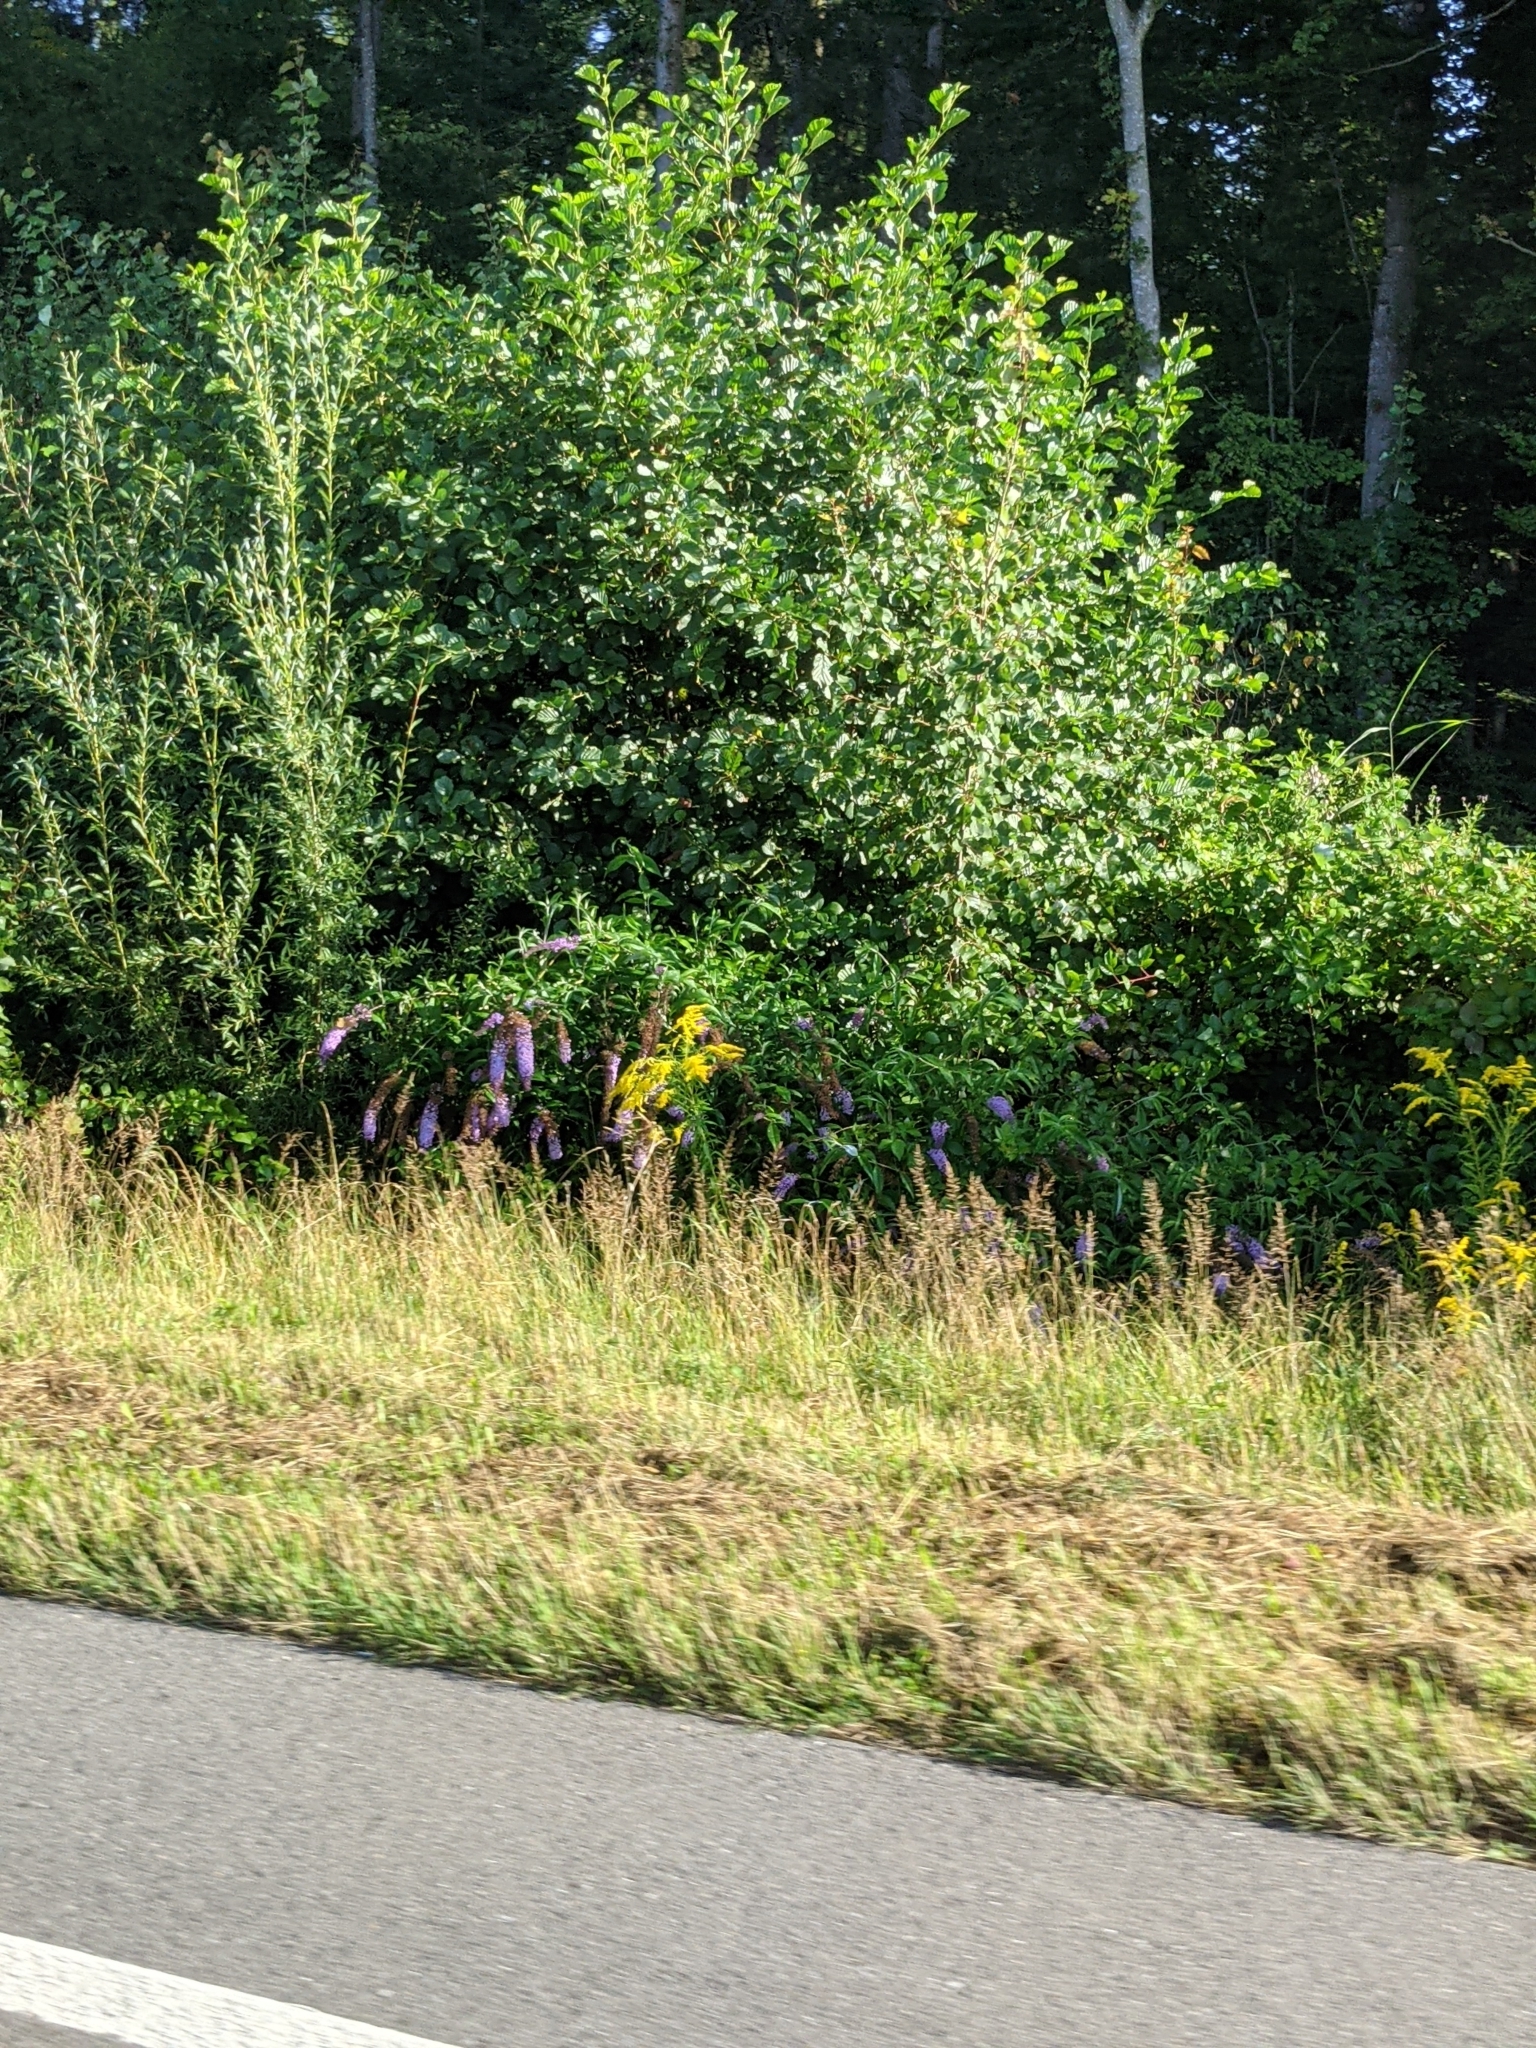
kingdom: Plantae
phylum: Tracheophyta
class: Magnoliopsida
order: Lamiales
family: Scrophulariaceae
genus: Buddleja
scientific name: Buddleja davidii
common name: Butterfly-bush
